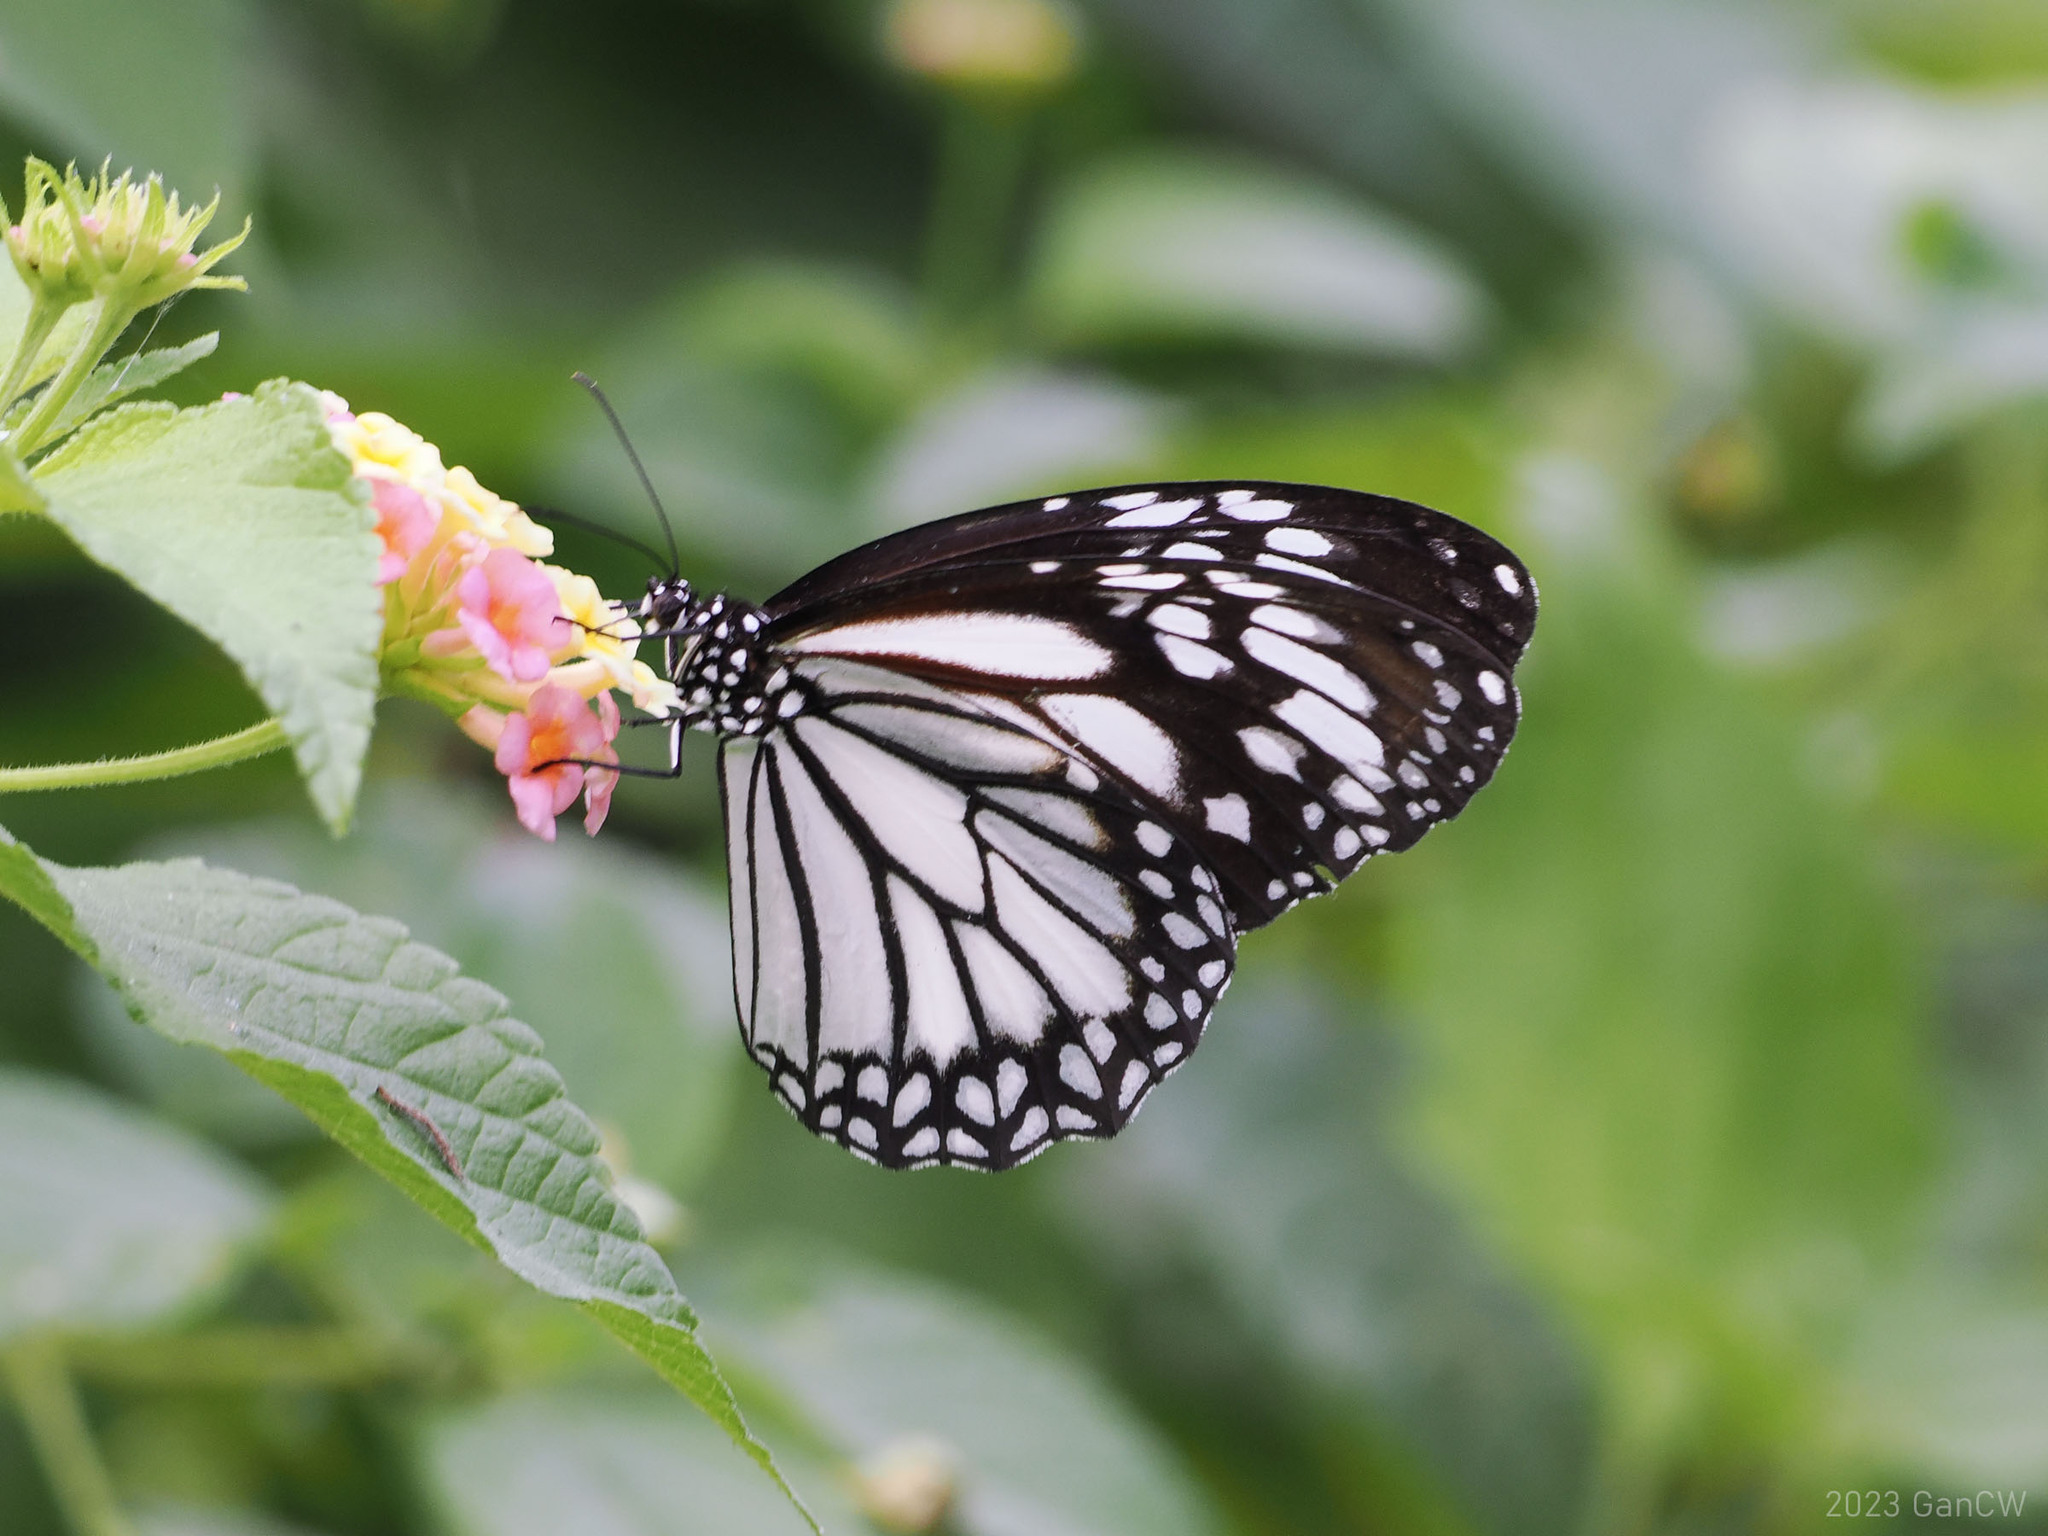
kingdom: Animalia
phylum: Arthropoda
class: Insecta
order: Lepidoptera
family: Nymphalidae
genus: Danaus
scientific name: Danaus melanippus
